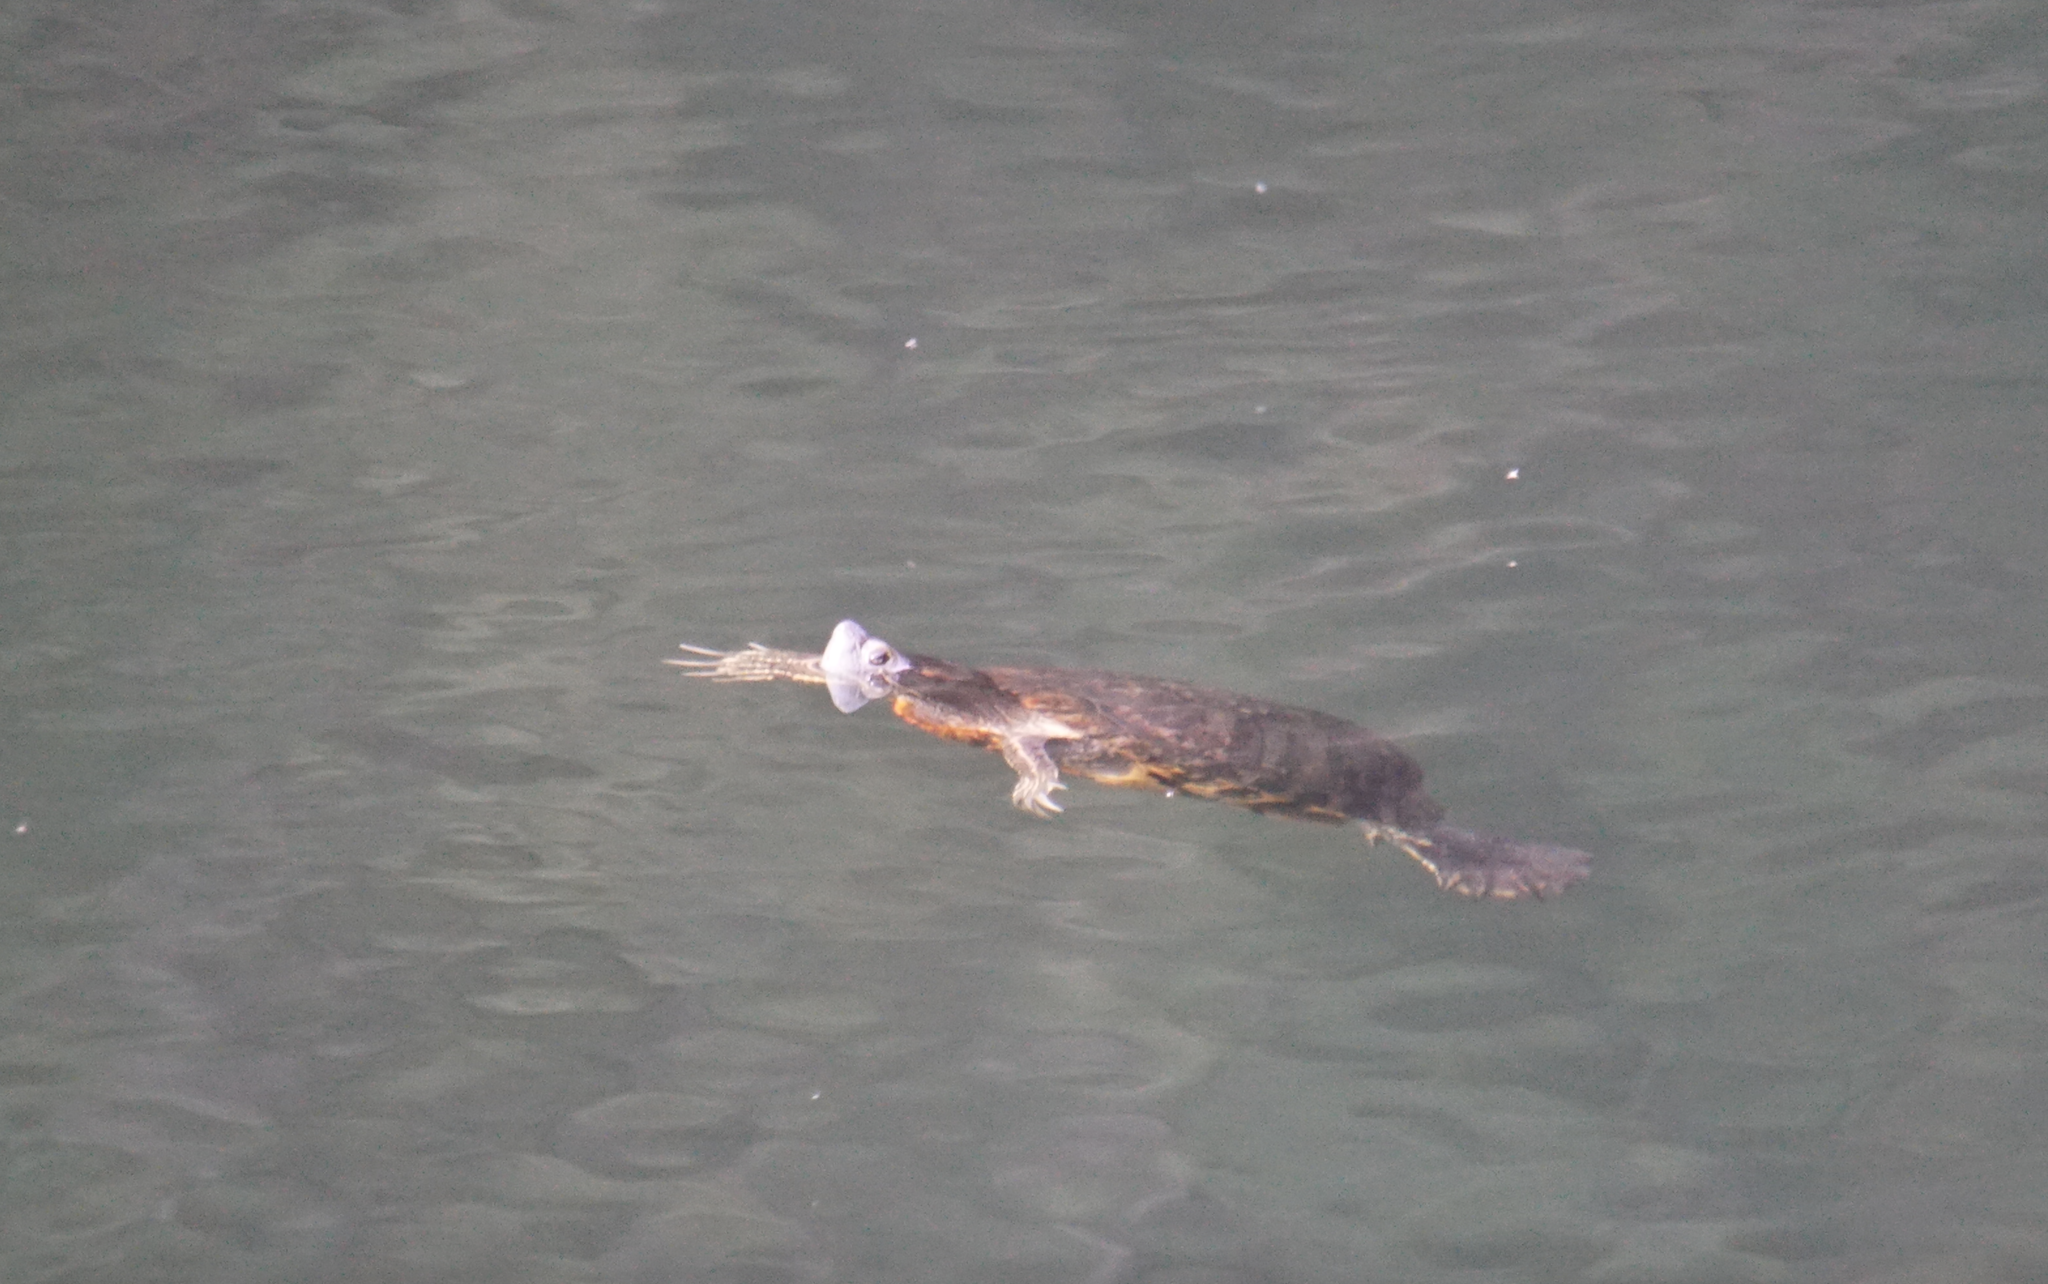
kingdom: Animalia
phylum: Chordata
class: Testudines
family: Emydidae
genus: Trachemys
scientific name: Trachemys scripta
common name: Slider
